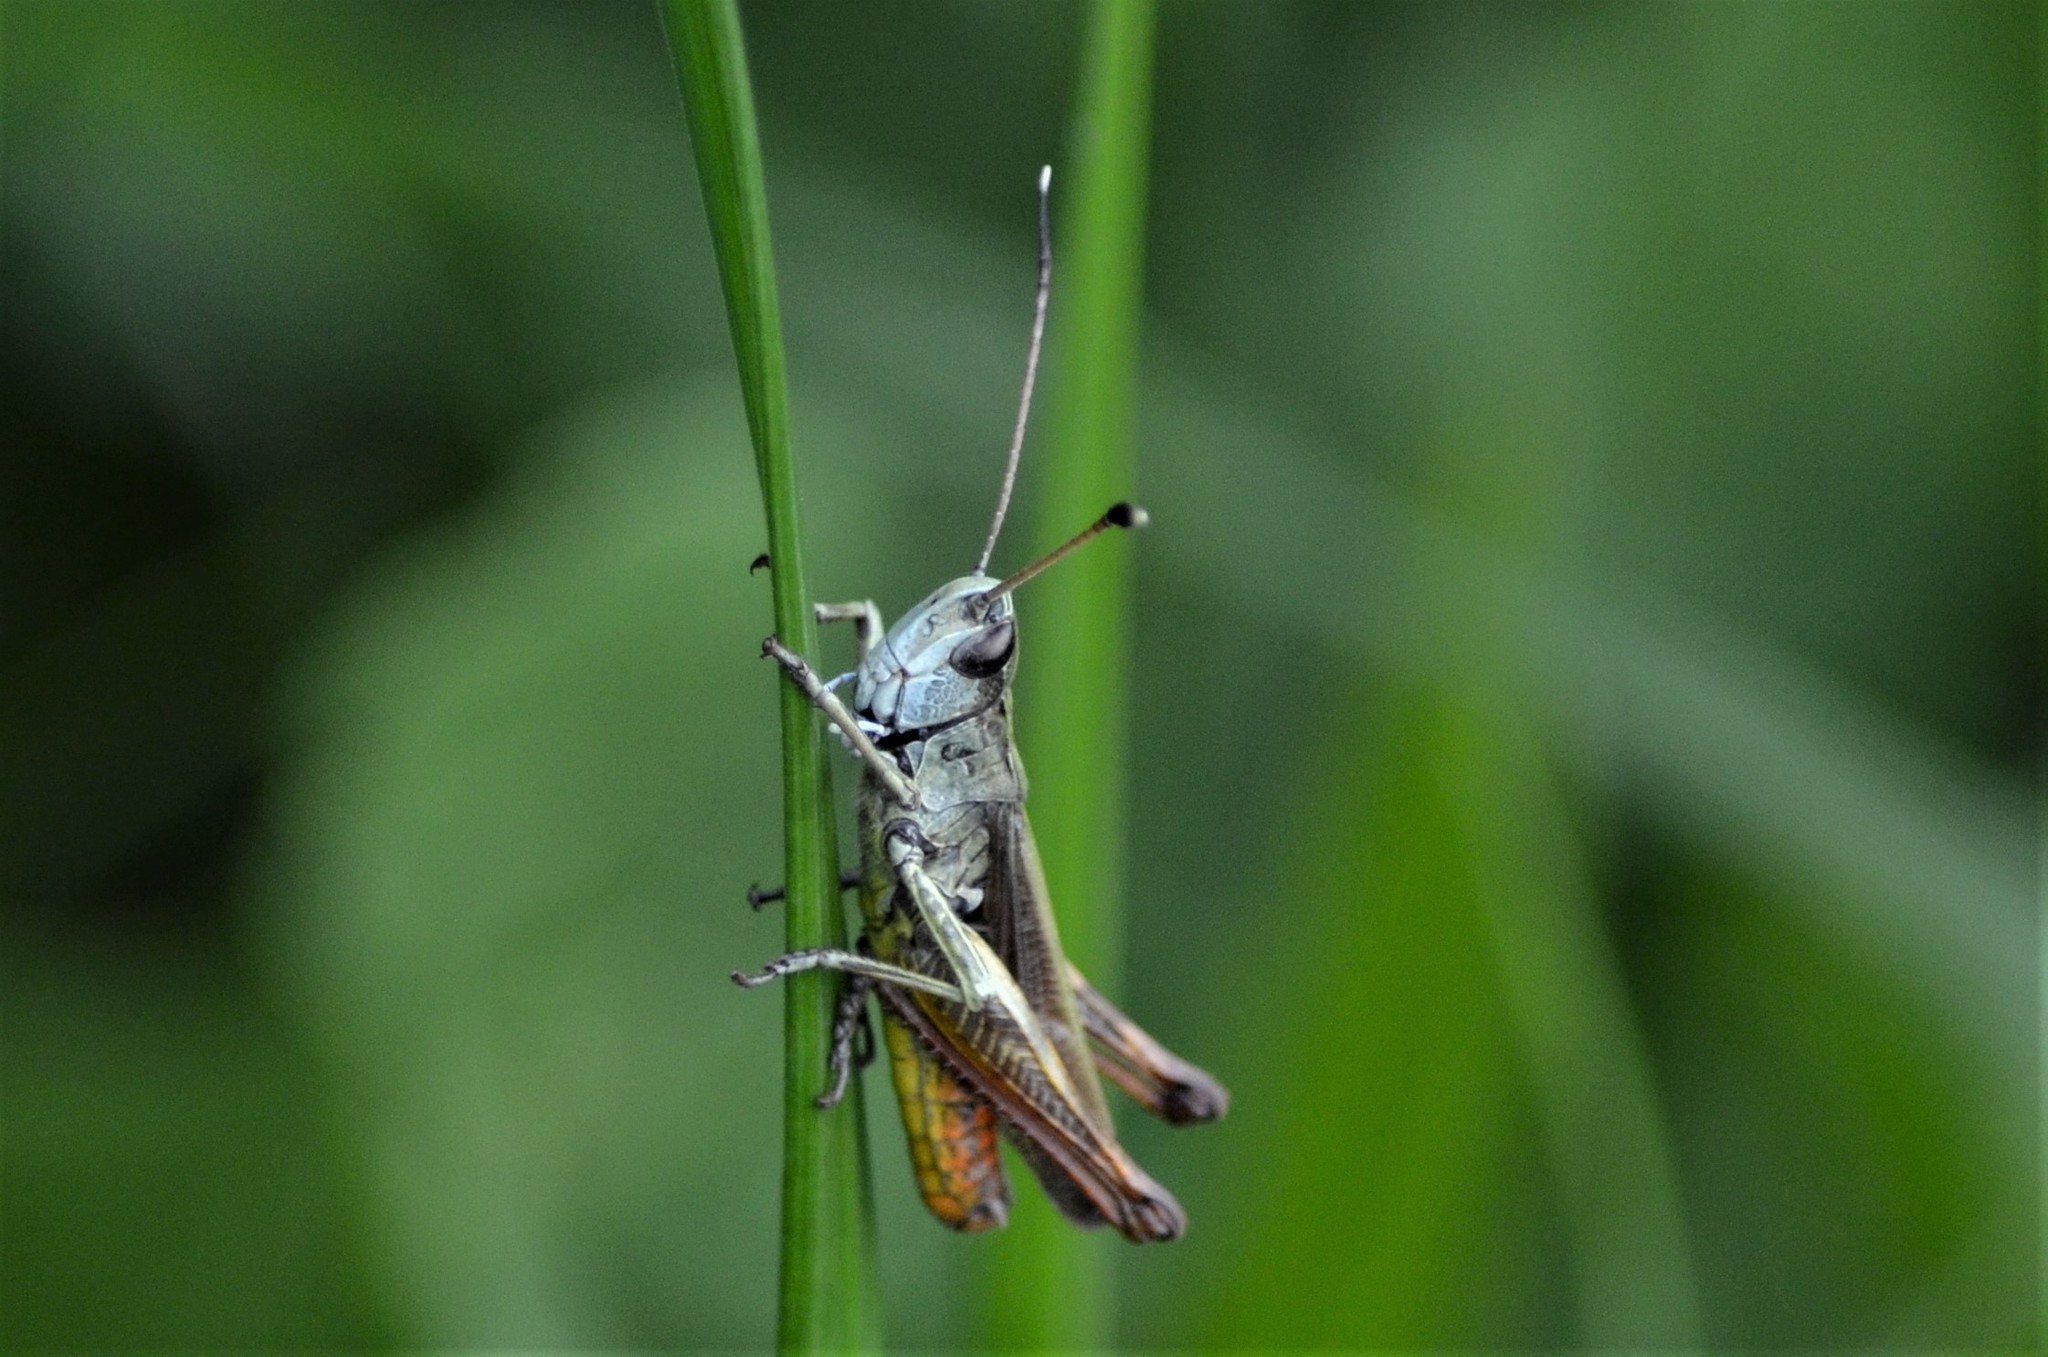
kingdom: Animalia
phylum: Arthropoda
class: Insecta
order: Orthoptera
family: Acrididae
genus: Gomphocerippus
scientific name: Gomphocerippus rufus
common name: Rufous grasshopper
